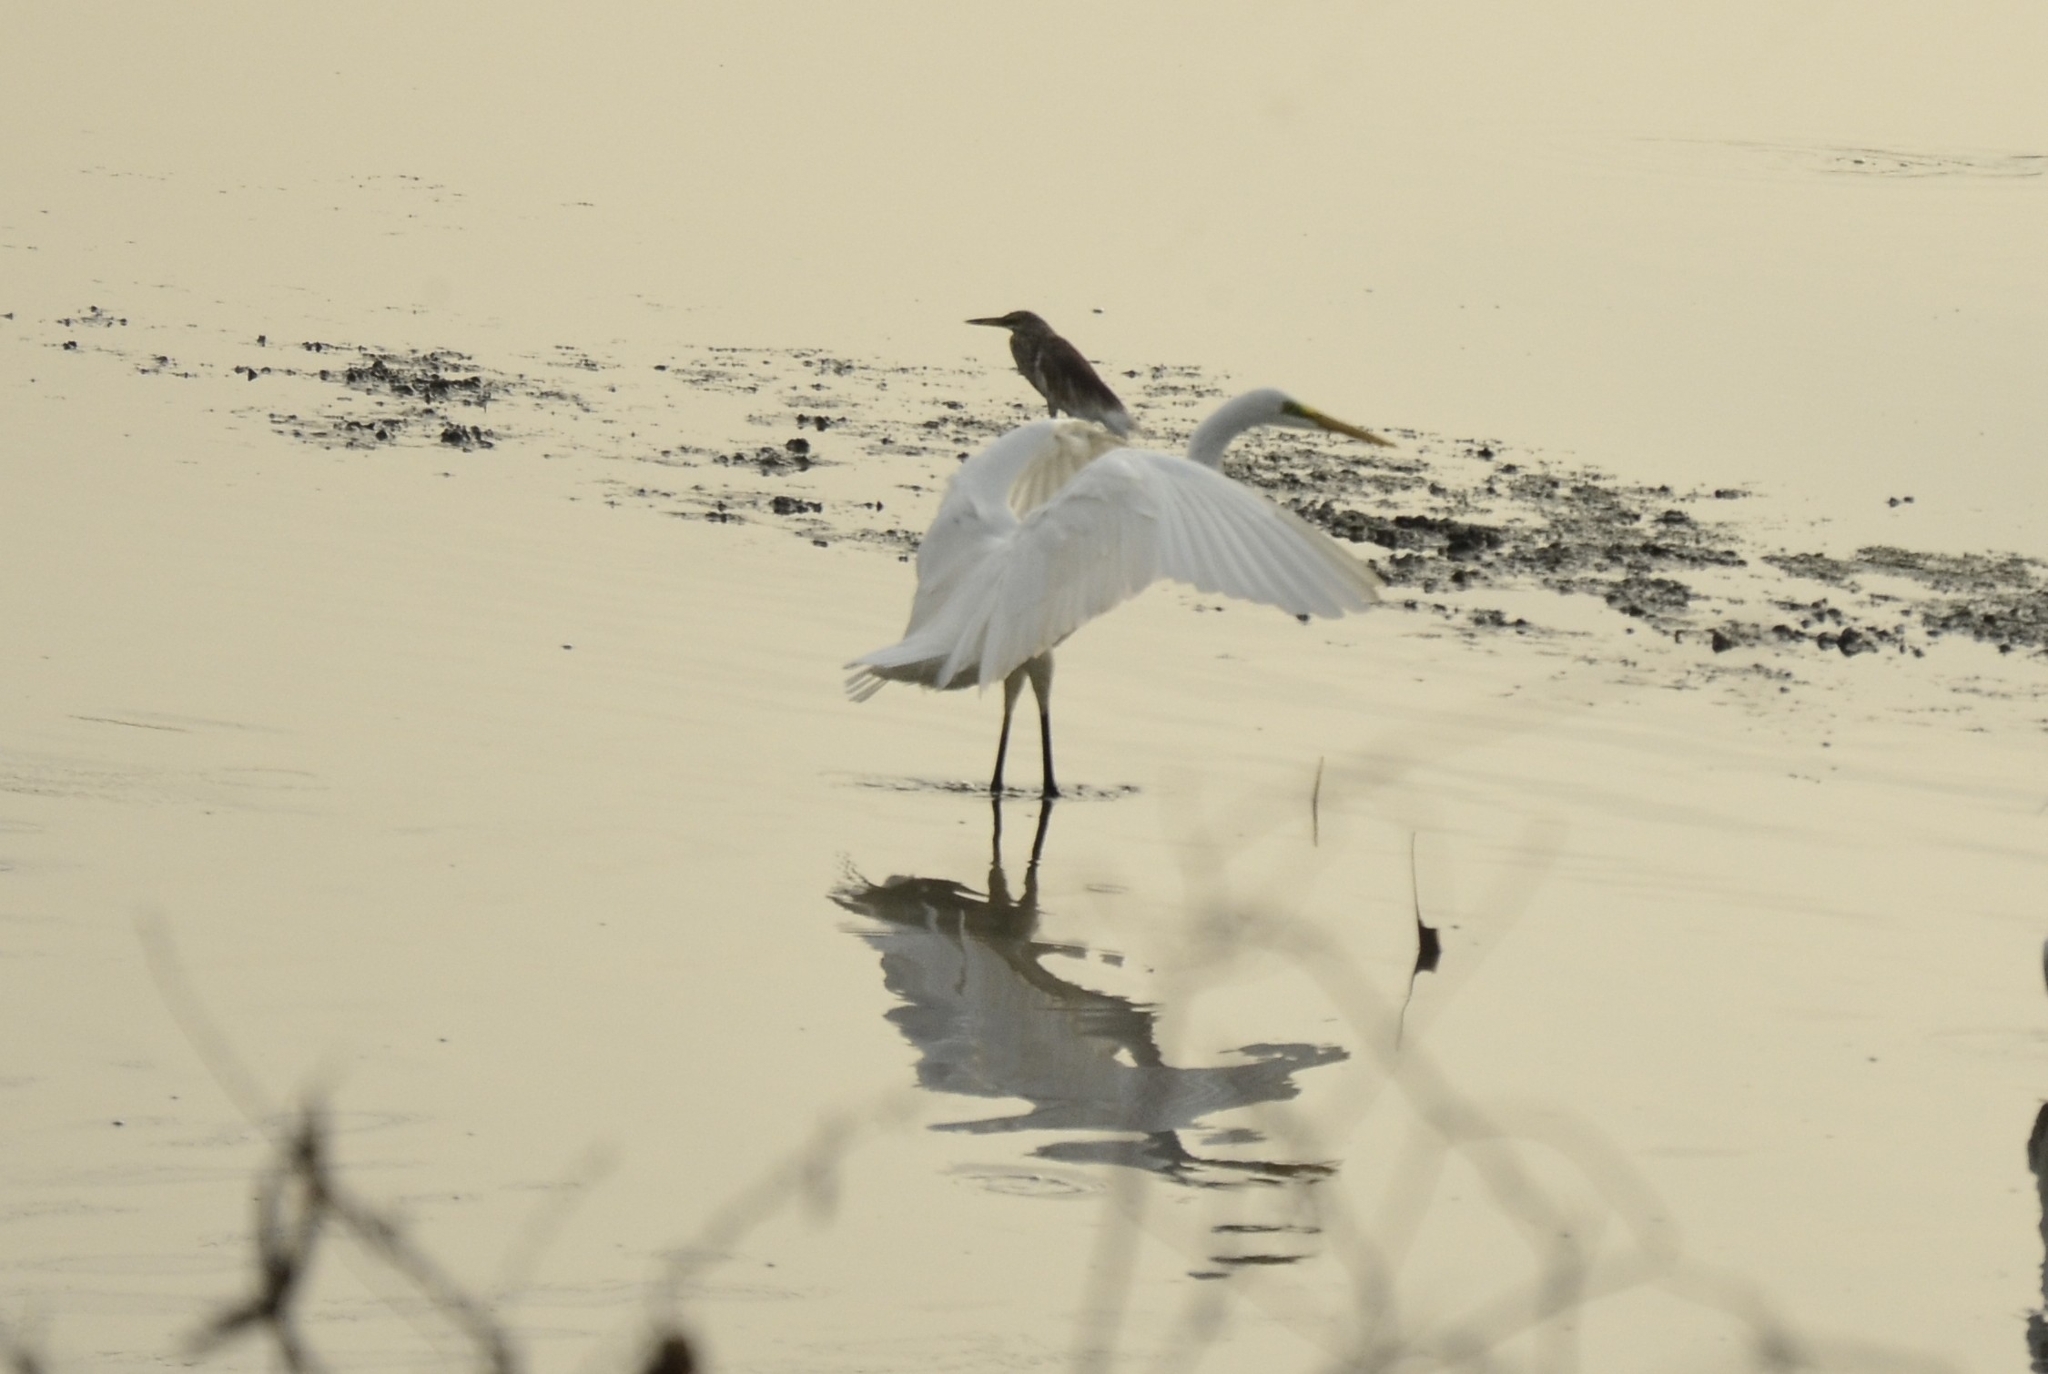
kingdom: Animalia
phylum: Chordata
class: Aves
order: Pelecaniformes
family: Ardeidae
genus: Ardea
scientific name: Ardea alba
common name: Great egret
